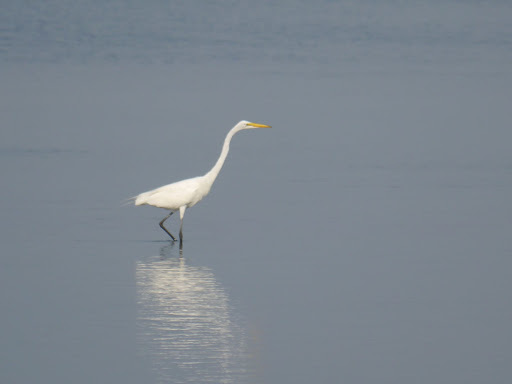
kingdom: Animalia
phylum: Chordata
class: Aves
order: Pelecaniformes
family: Ardeidae
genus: Ardea
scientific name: Ardea alba
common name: Great egret
